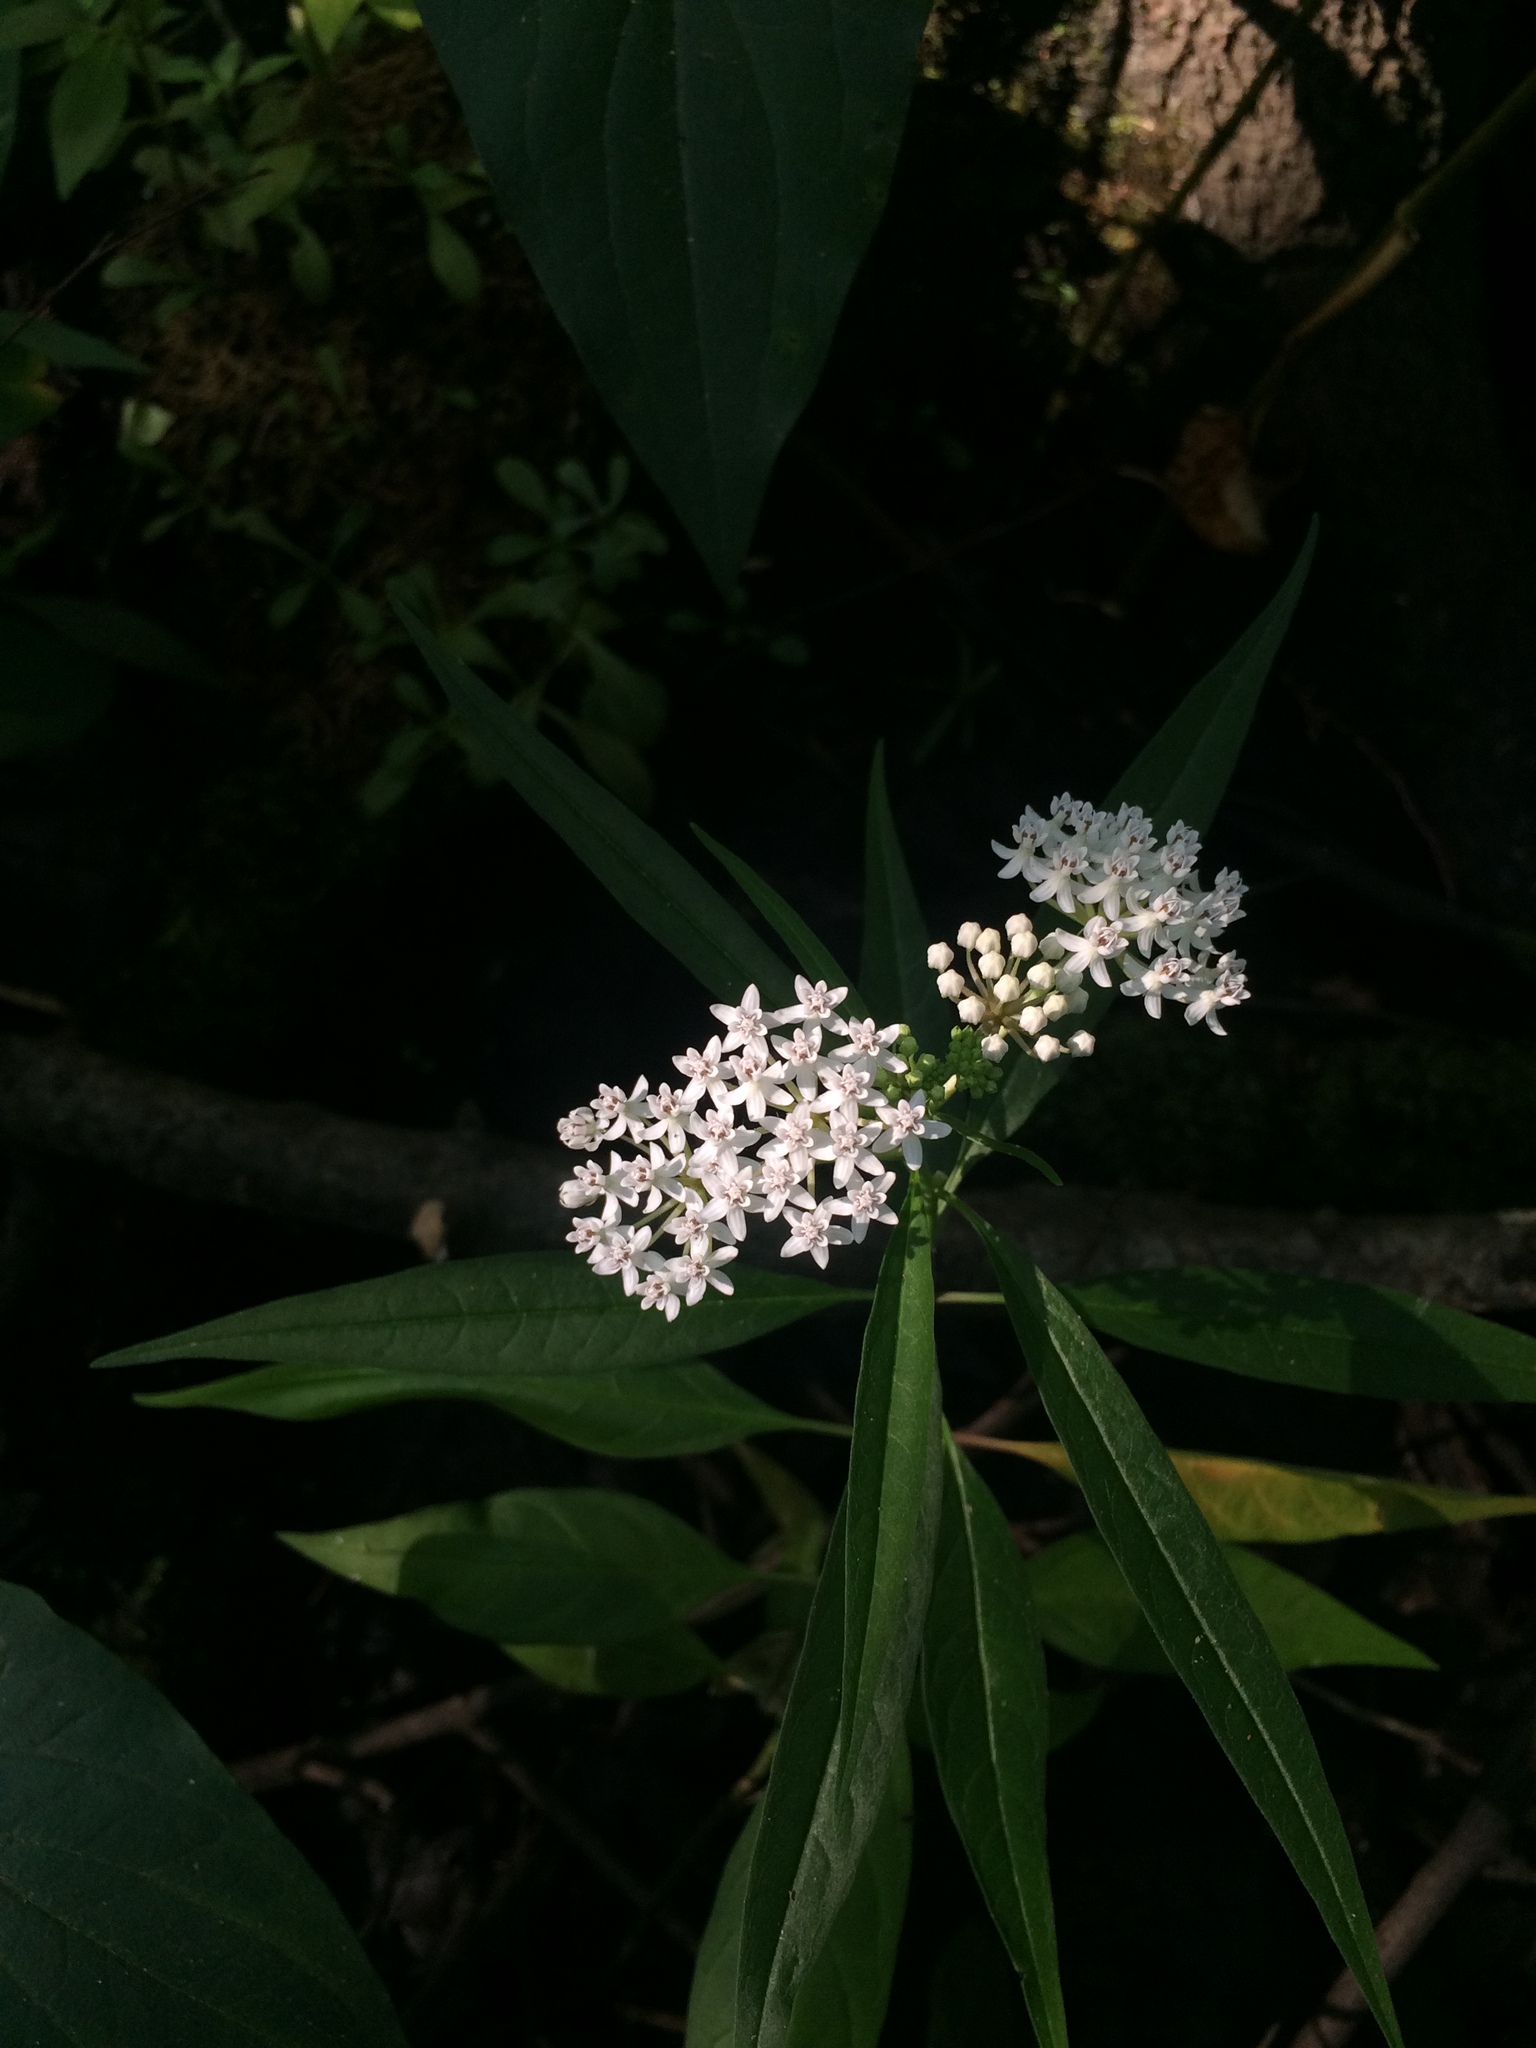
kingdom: Plantae
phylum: Tracheophyta
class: Magnoliopsida
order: Gentianales
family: Apocynaceae
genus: Asclepias
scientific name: Asclepias perennis
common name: Smooth-seed milkweed
